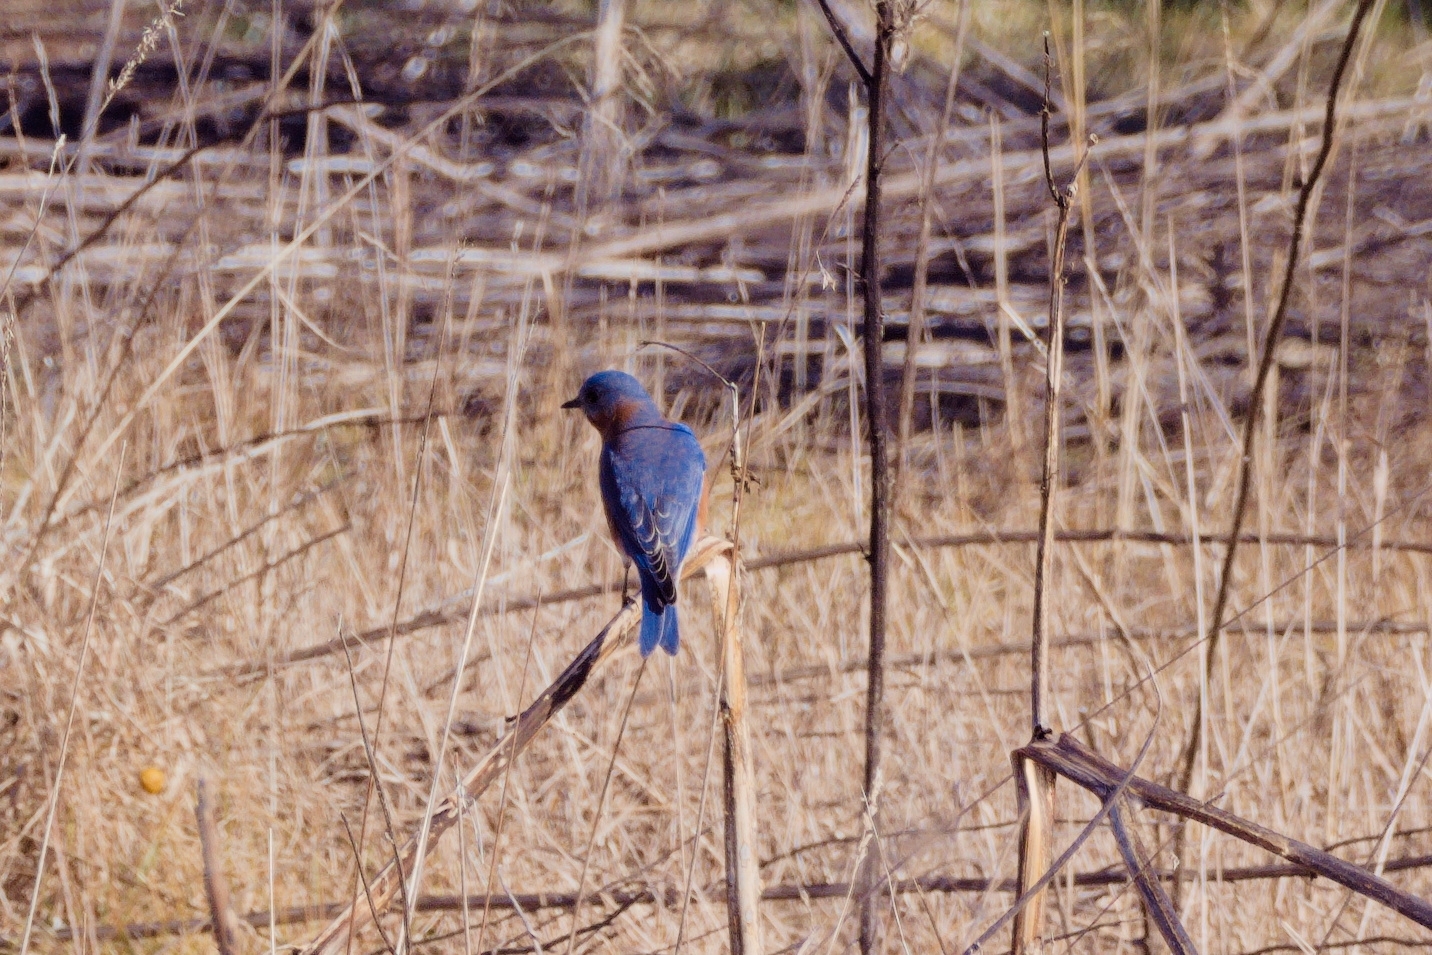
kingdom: Animalia
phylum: Chordata
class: Aves
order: Passeriformes
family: Turdidae
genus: Sialia
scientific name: Sialia sialis
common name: Eastern bluebird
